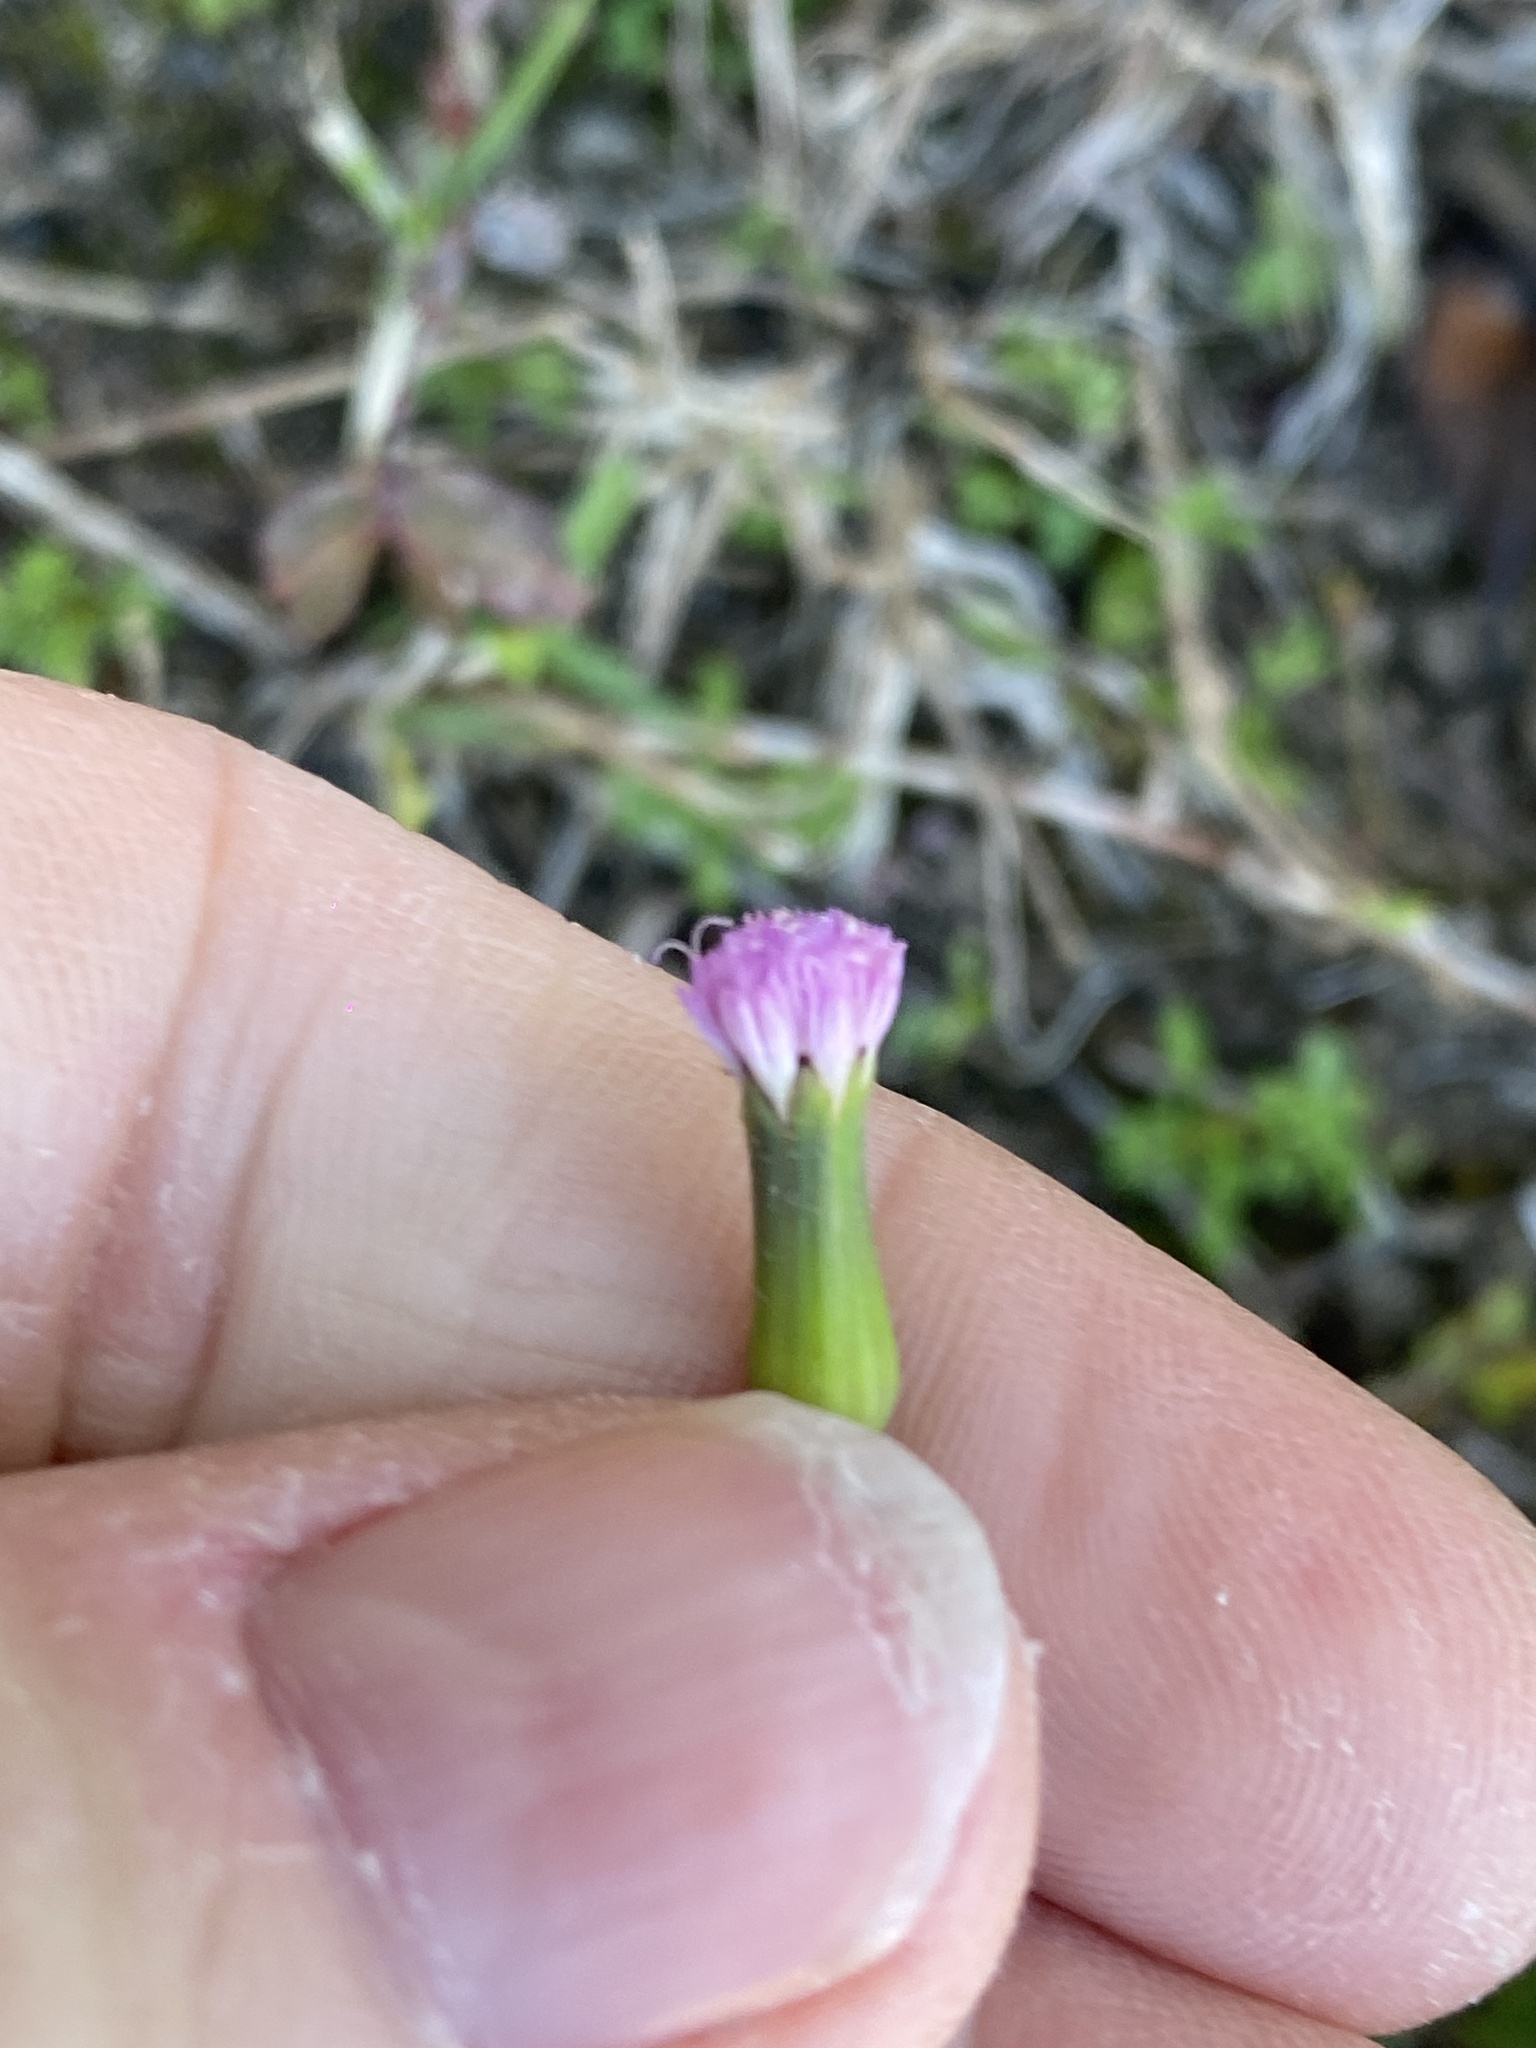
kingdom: Plantae
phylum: Tracheophyta
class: Magnoliopsida
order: Asterales
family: Asteraceae
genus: Emilia
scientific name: Emilia javanica
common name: Tassel-flower
